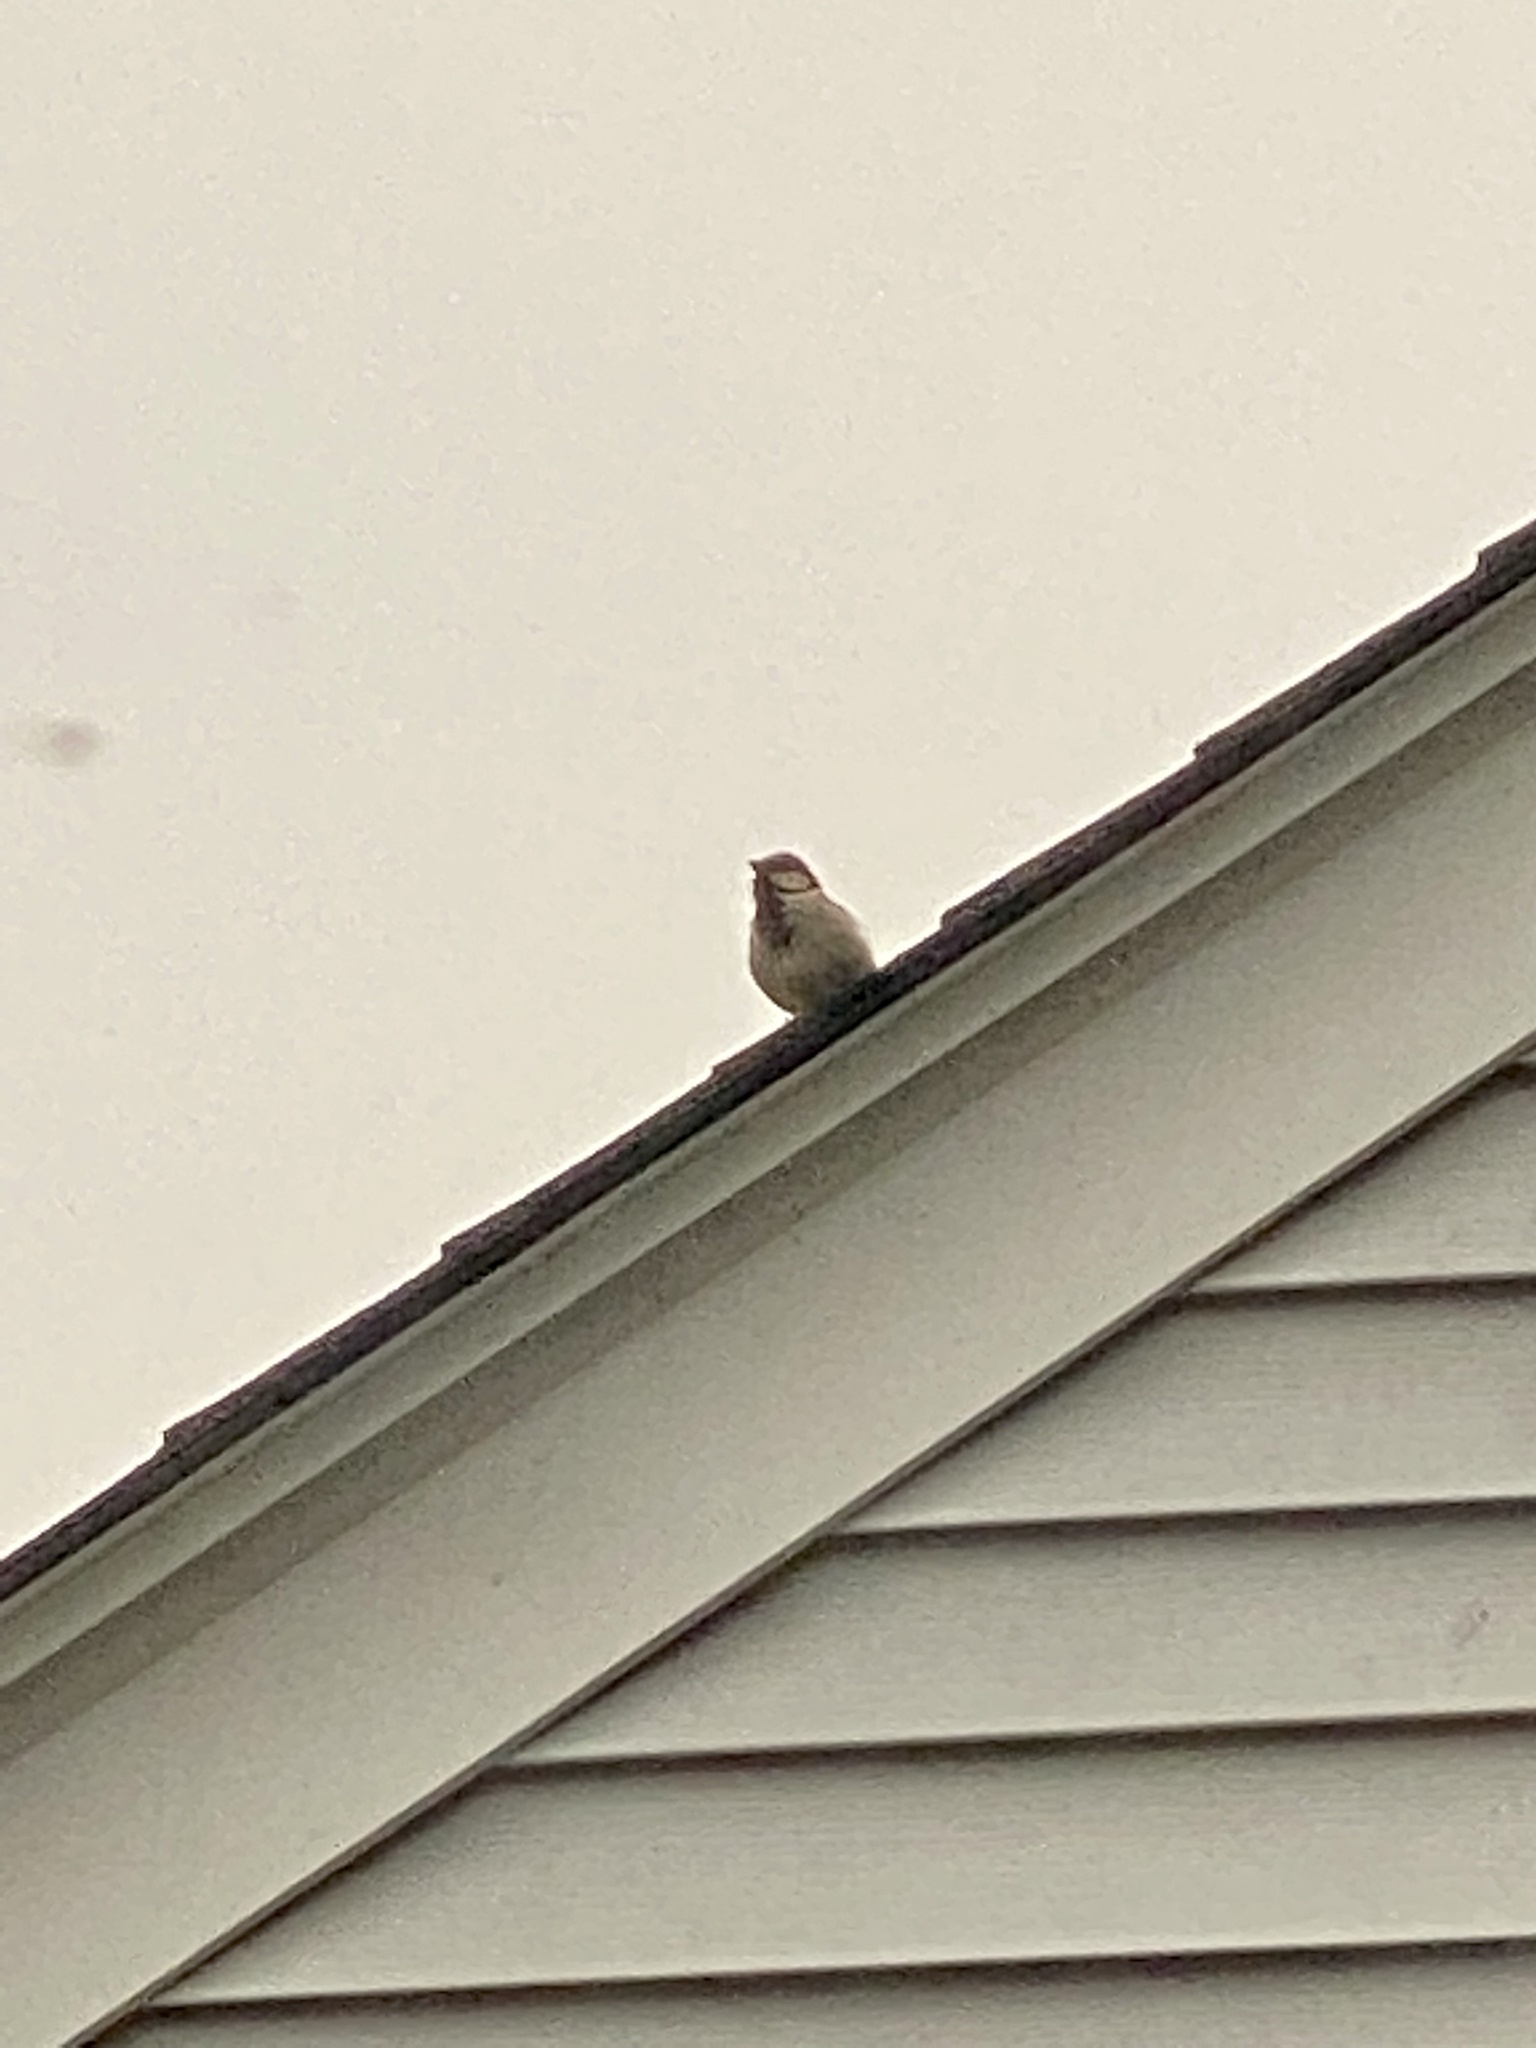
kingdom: Animalia
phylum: Chordata
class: Aves
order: Passeriformes
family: Passeridae
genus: Passer
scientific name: Passer domesticus
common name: House sparrow
